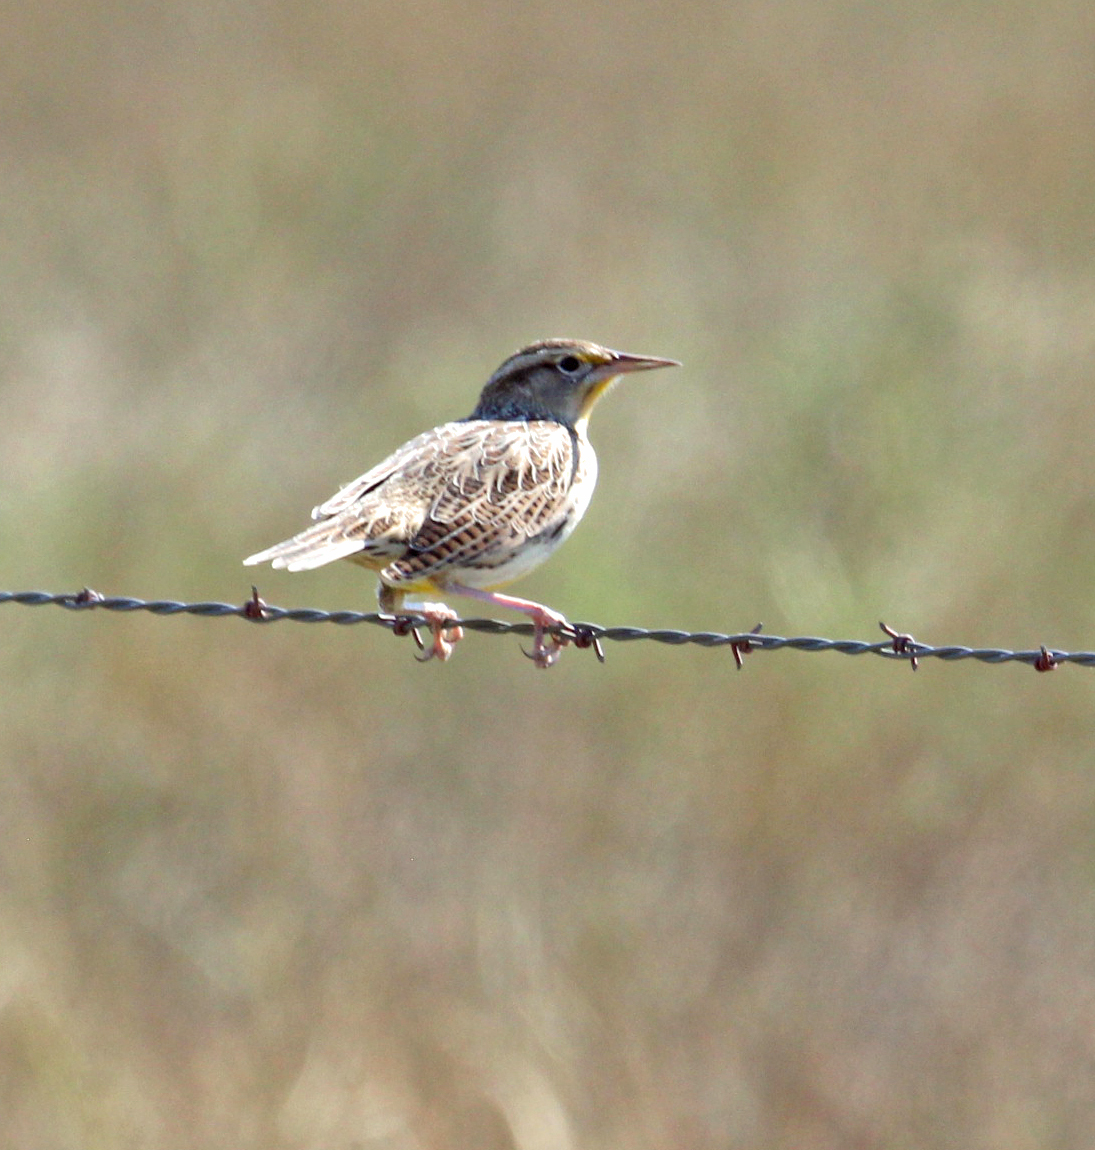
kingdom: Animalia
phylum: Chordata
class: Aves
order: Passeriformes
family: Icteridae
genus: Sturnella
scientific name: Sturnella neglecta
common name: Western meadowlark
